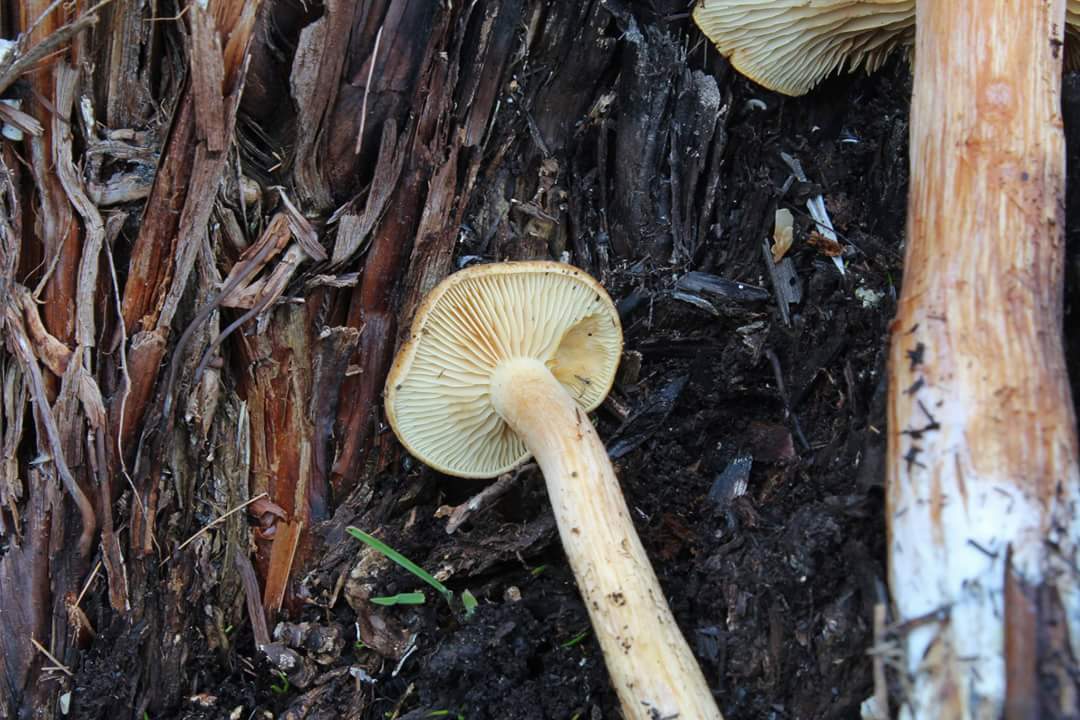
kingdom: Fungi
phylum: Basidiomycota
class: Agaricomycetes
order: Agaricales
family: Hymenogastraceae
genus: Gymnopilus
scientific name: Gymnopilus maritimus
